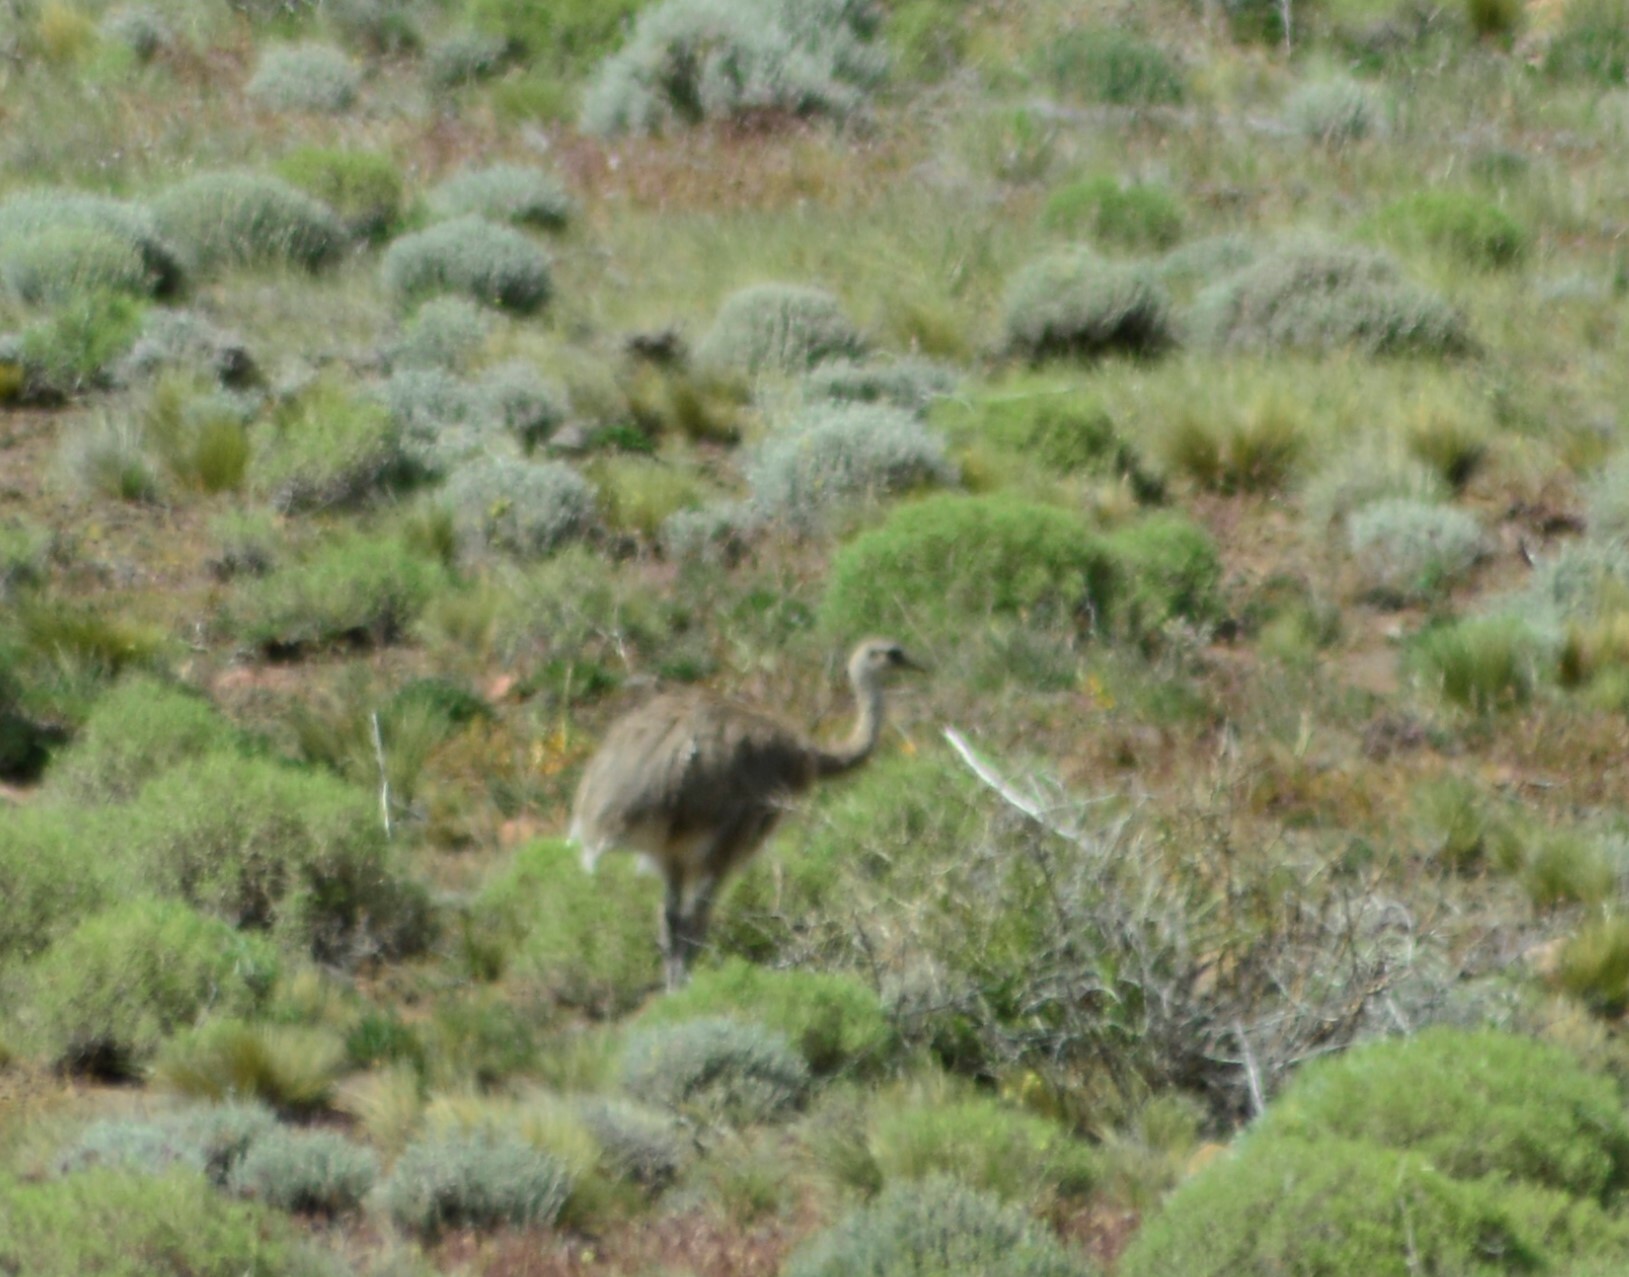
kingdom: Animalia
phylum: Chordata
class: Aves
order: Rheiformes
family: Rheidae
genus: Rhea
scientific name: Rhea pennata
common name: Lesser rhea
